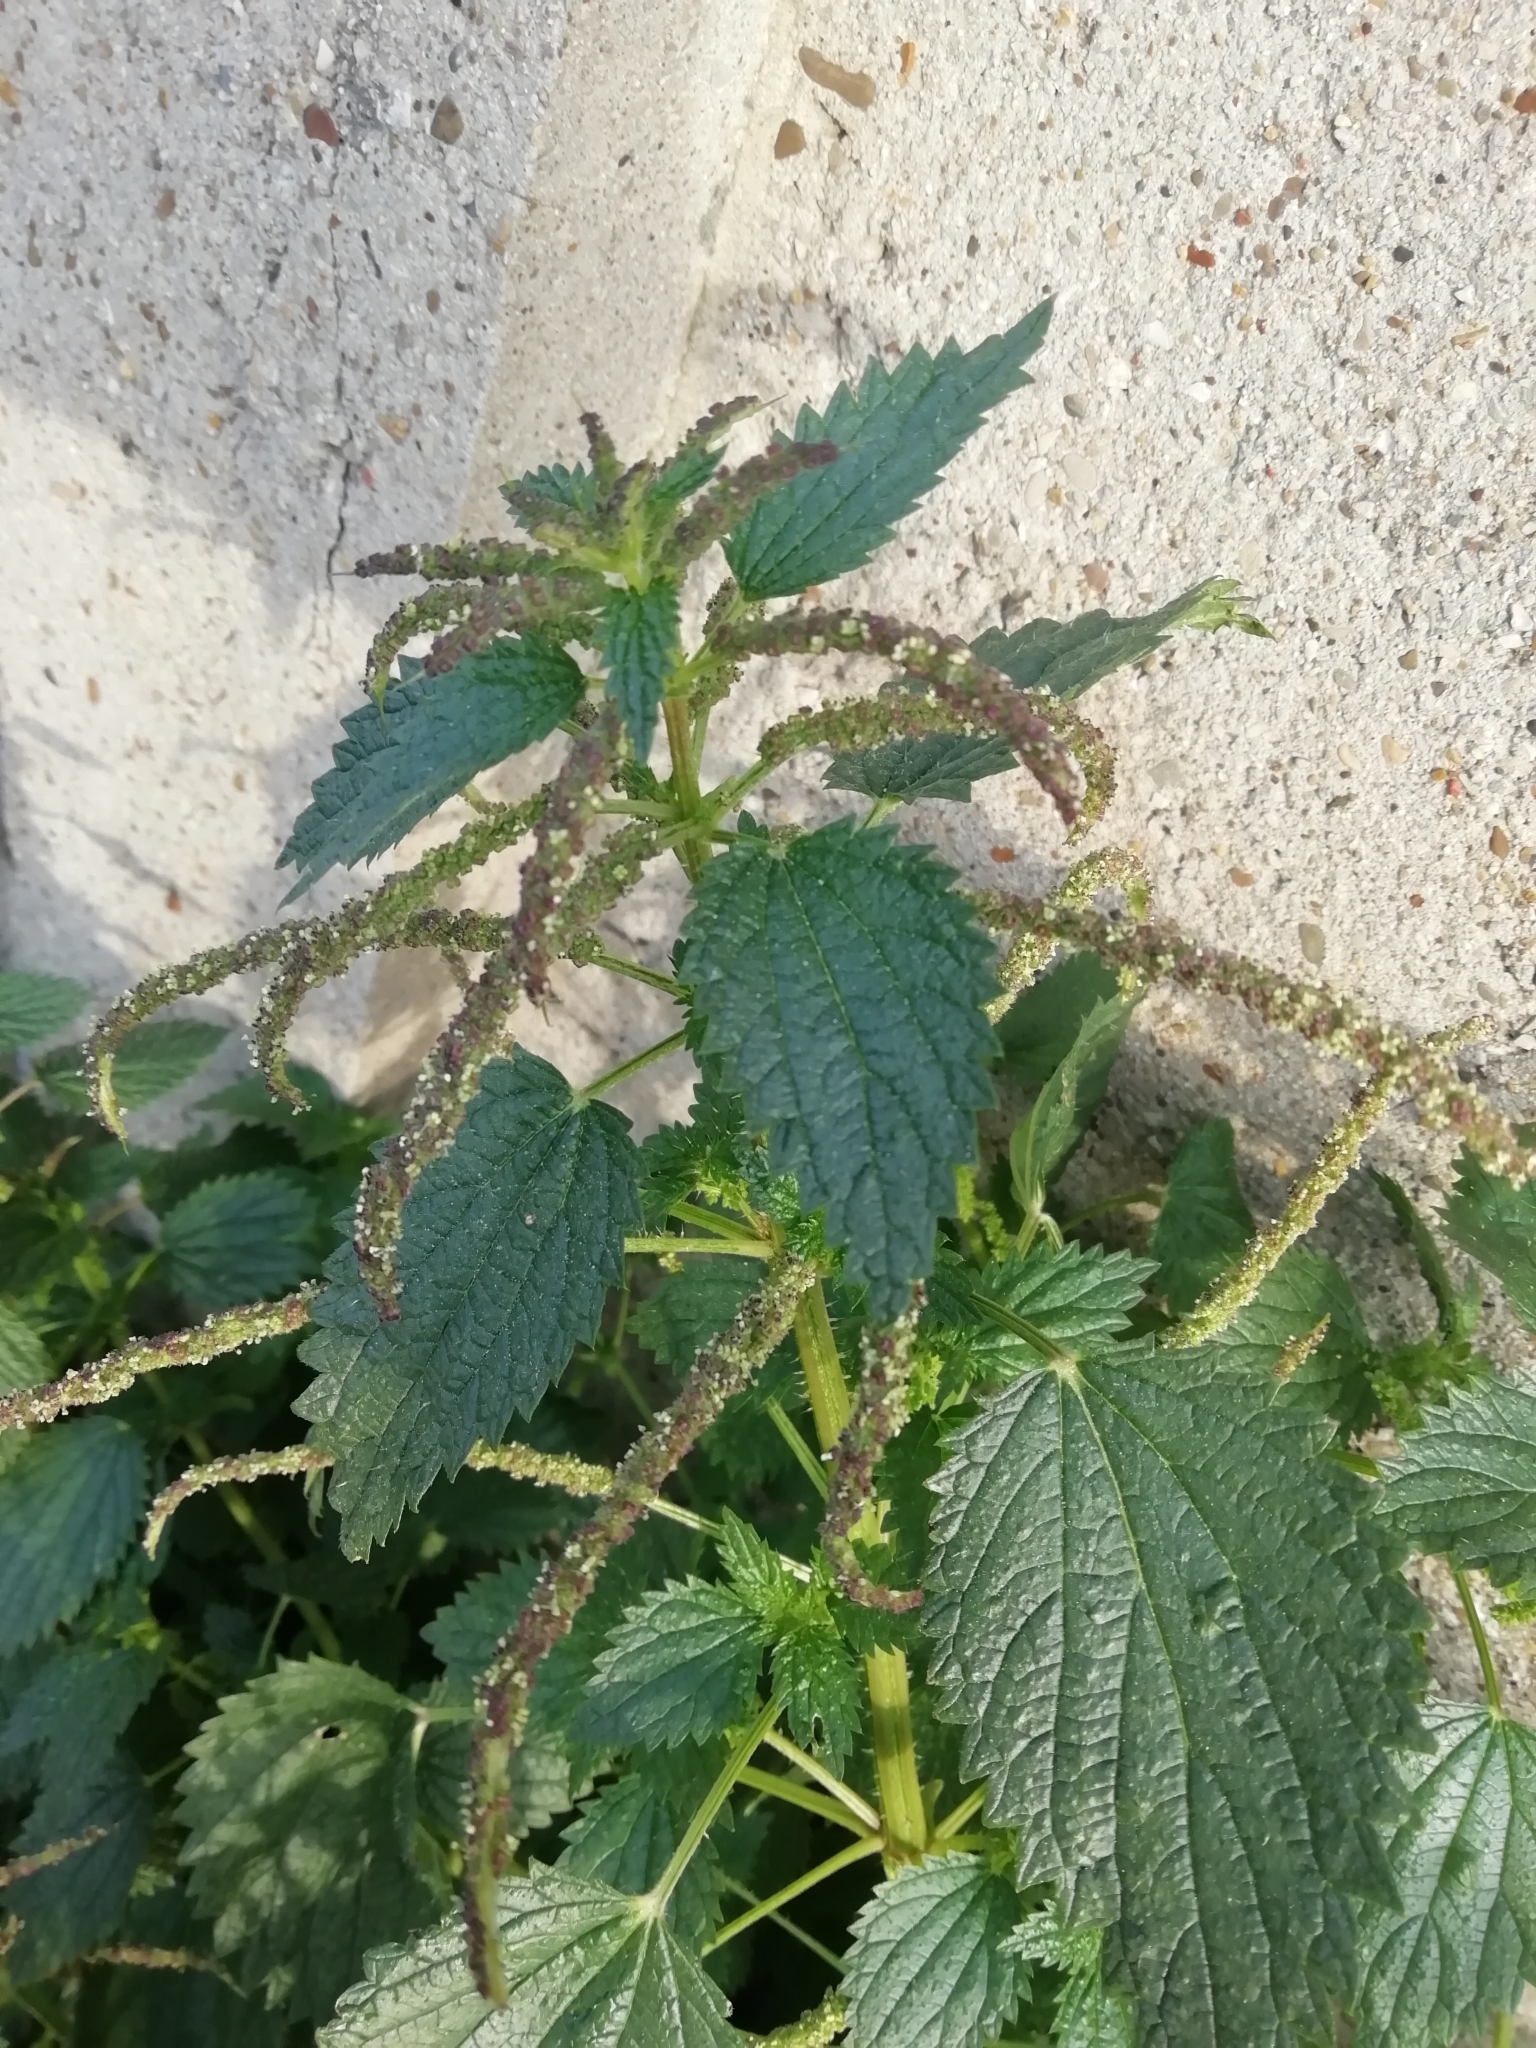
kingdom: Plantae
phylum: Tracheophyta
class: Magnoliopsida
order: Rosales
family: Urticaceae
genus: Urtica
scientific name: Urtica membranacea
